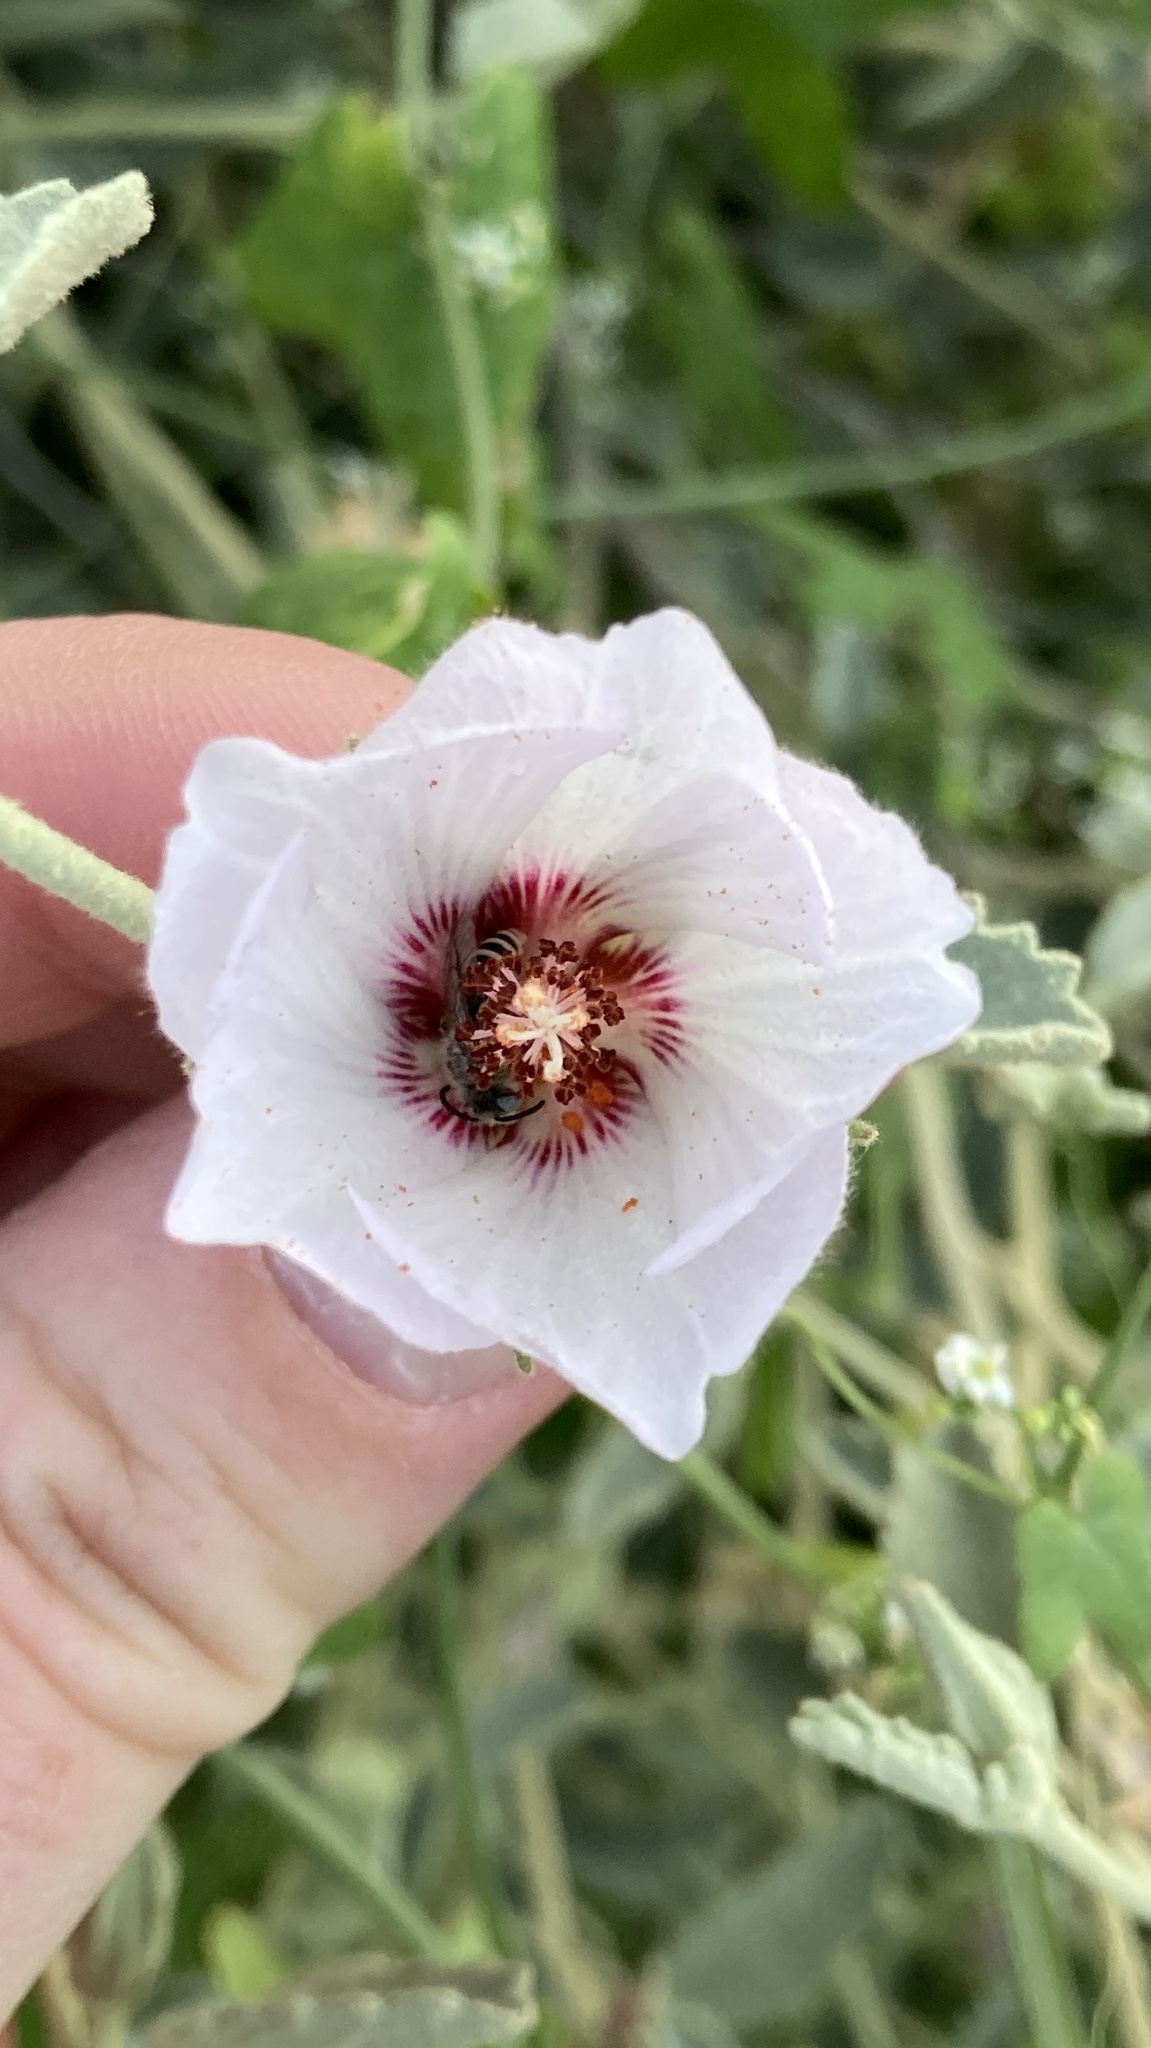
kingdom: Plantae
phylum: Tracheophyta
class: Magnoliopsida
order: Malvales
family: Malvaceae
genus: Hibiscus
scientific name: Hibiscus denudatus
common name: Paleface
